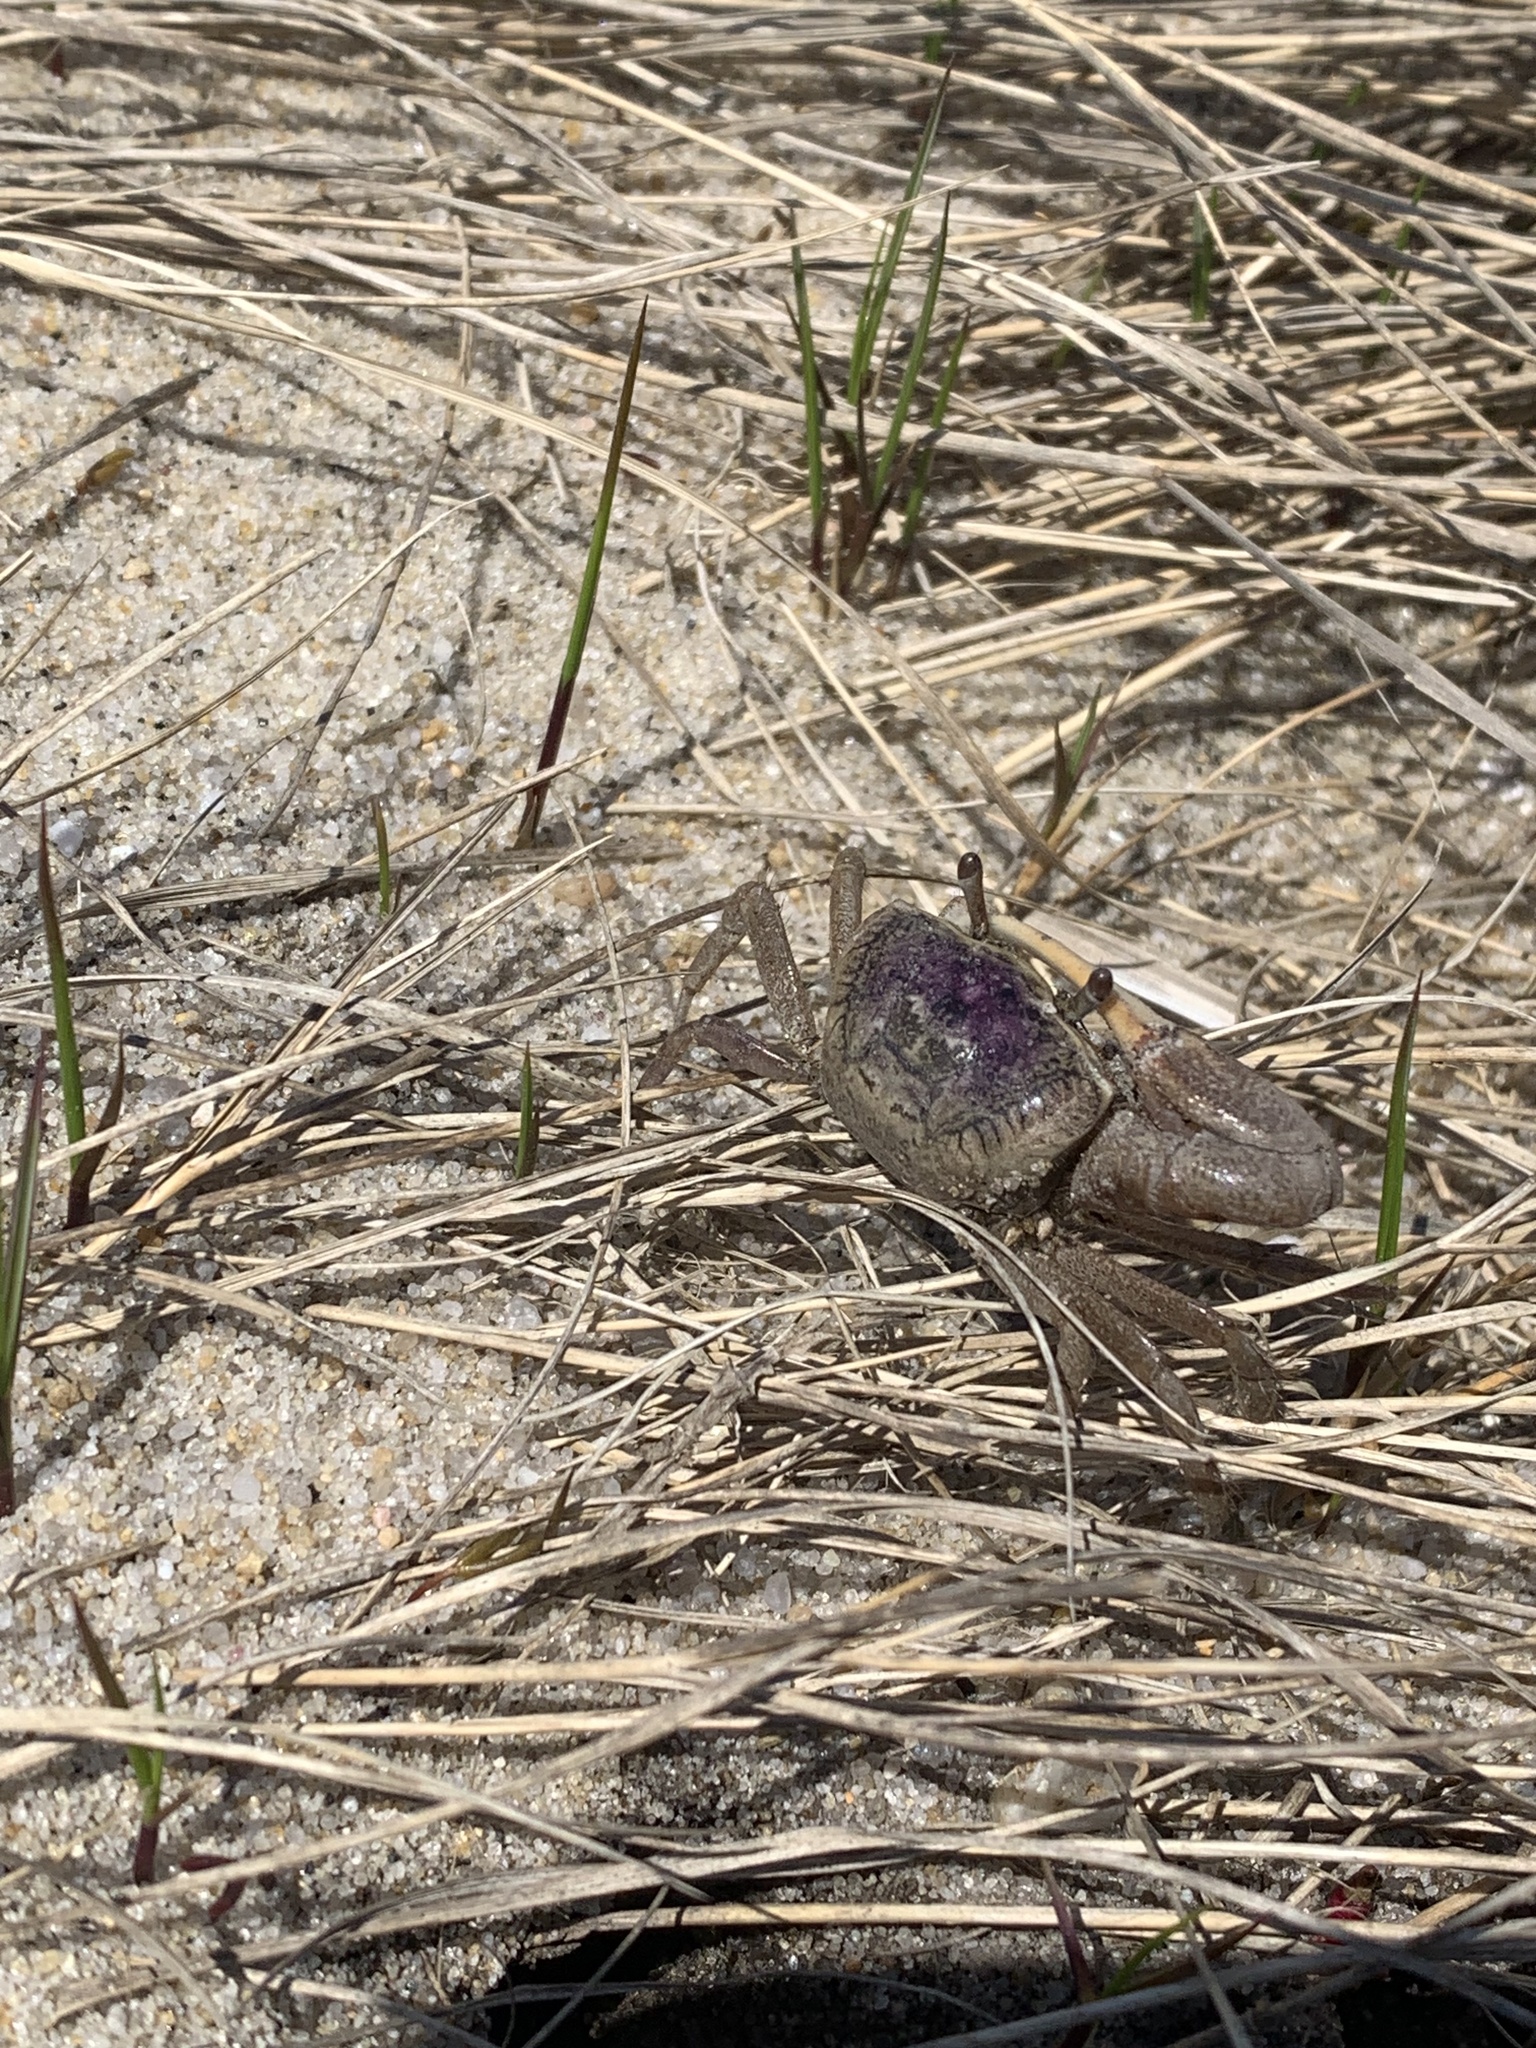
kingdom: Animalia
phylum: Arthropoda
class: Malacostraca
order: Decapoda
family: Ocypodidae
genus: Leptuca
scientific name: Leptuca pugilator
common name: Atlantic sand fiddler crab
